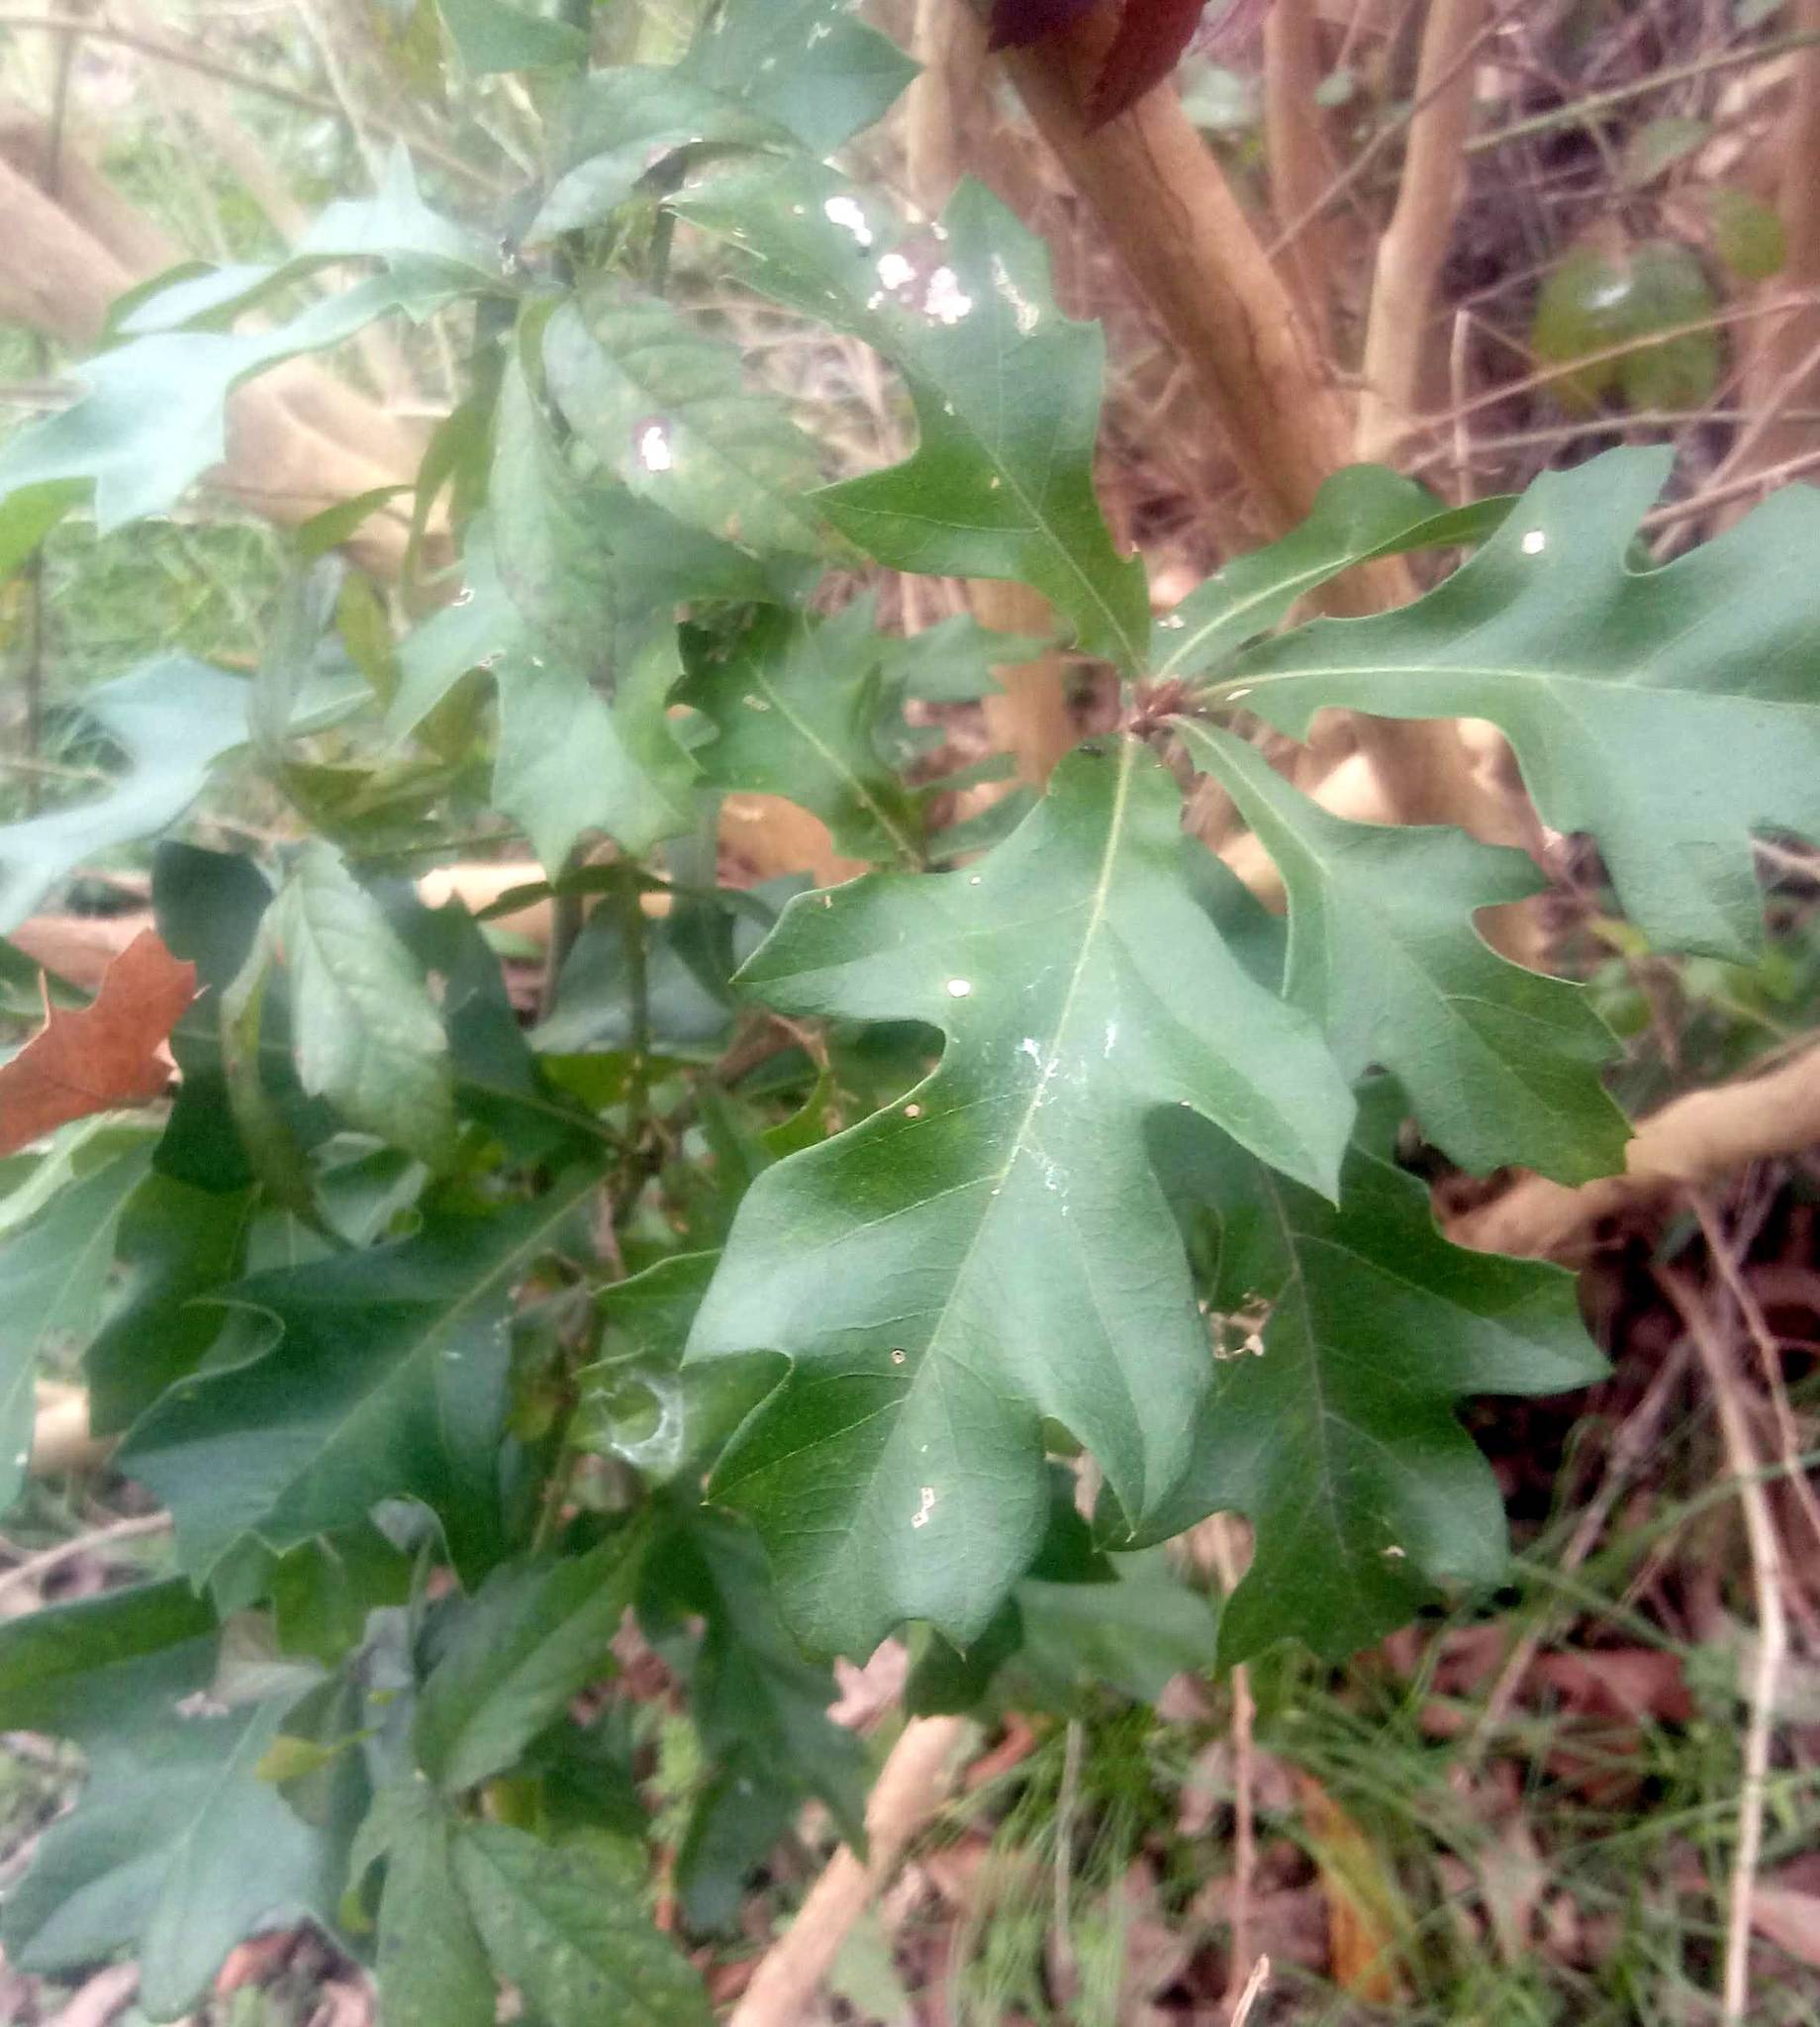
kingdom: Plantae
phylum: Tracheophyta
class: Magnoliopsida
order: Fagales
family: Fagaceae
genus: Quercus
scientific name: Quercus nigra
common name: Water oak
